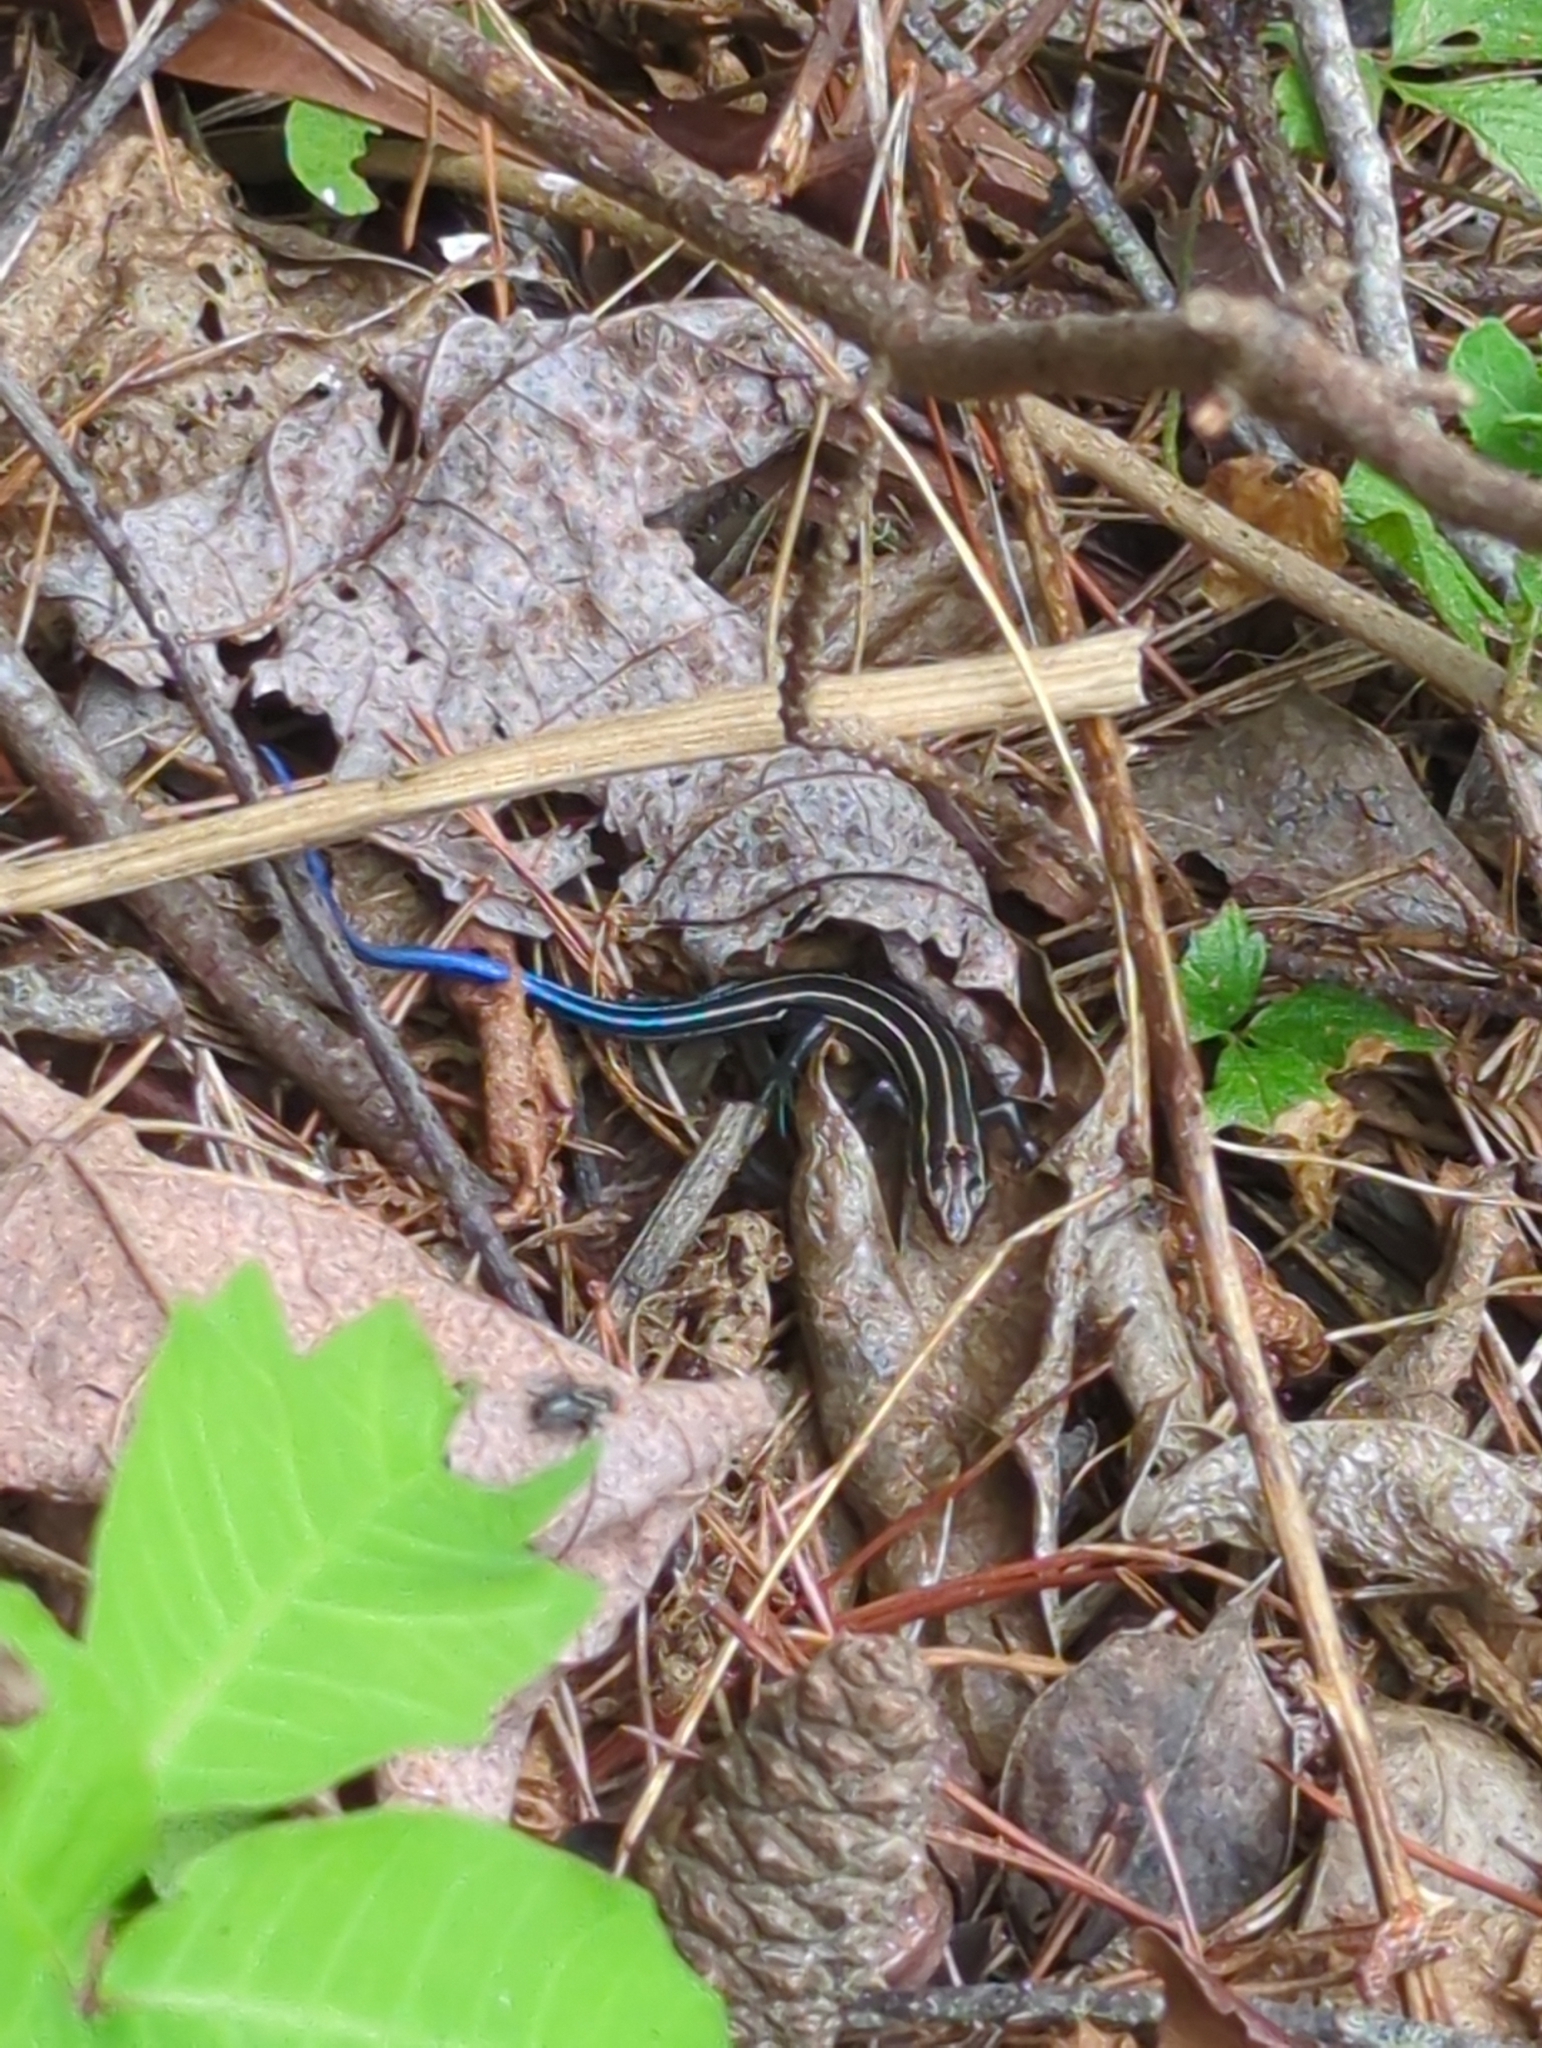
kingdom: Animalia
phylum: Chordata
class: Squamata
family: Scincidae
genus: Plestiodon
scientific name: Plestiodon fasciatus
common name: Five-lined skink
